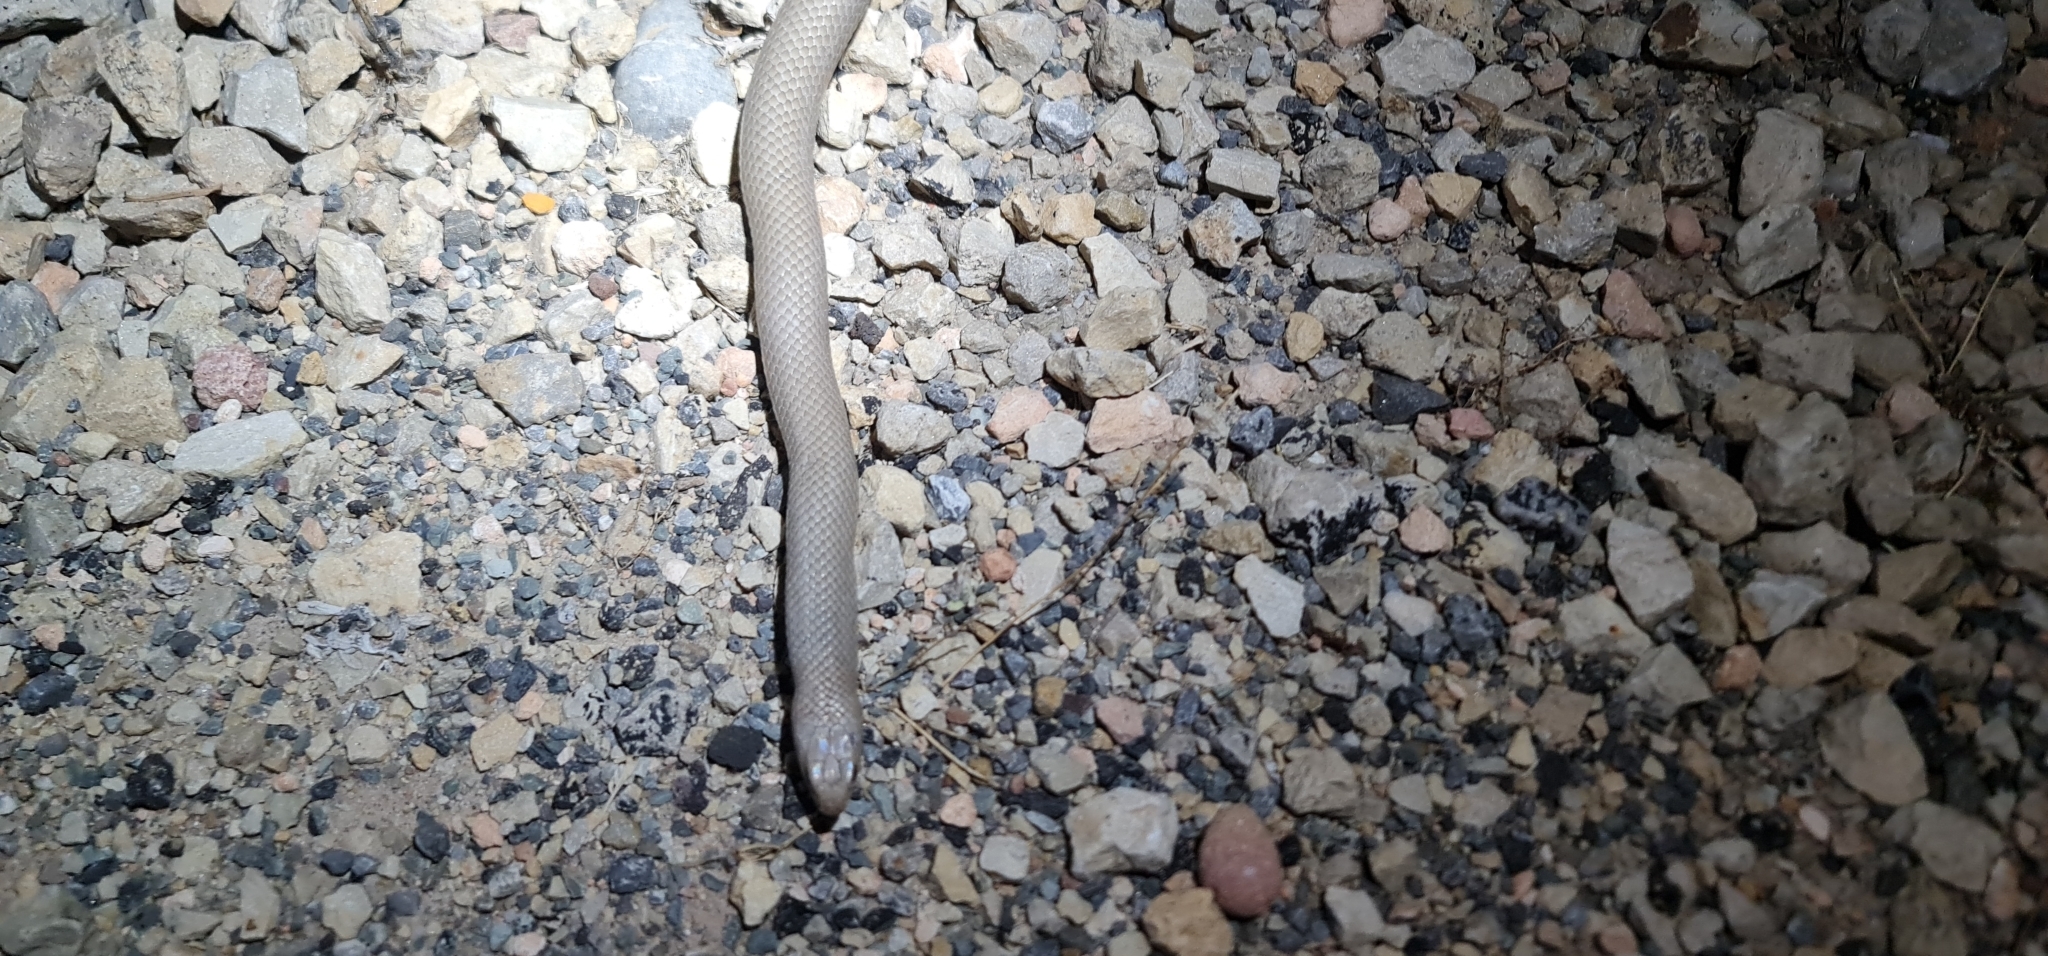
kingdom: Animalia
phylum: Chordata
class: Squamata
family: Elapidae
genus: Pseudonaja
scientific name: Pseudonaja textilis
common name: Eastern brown snake
